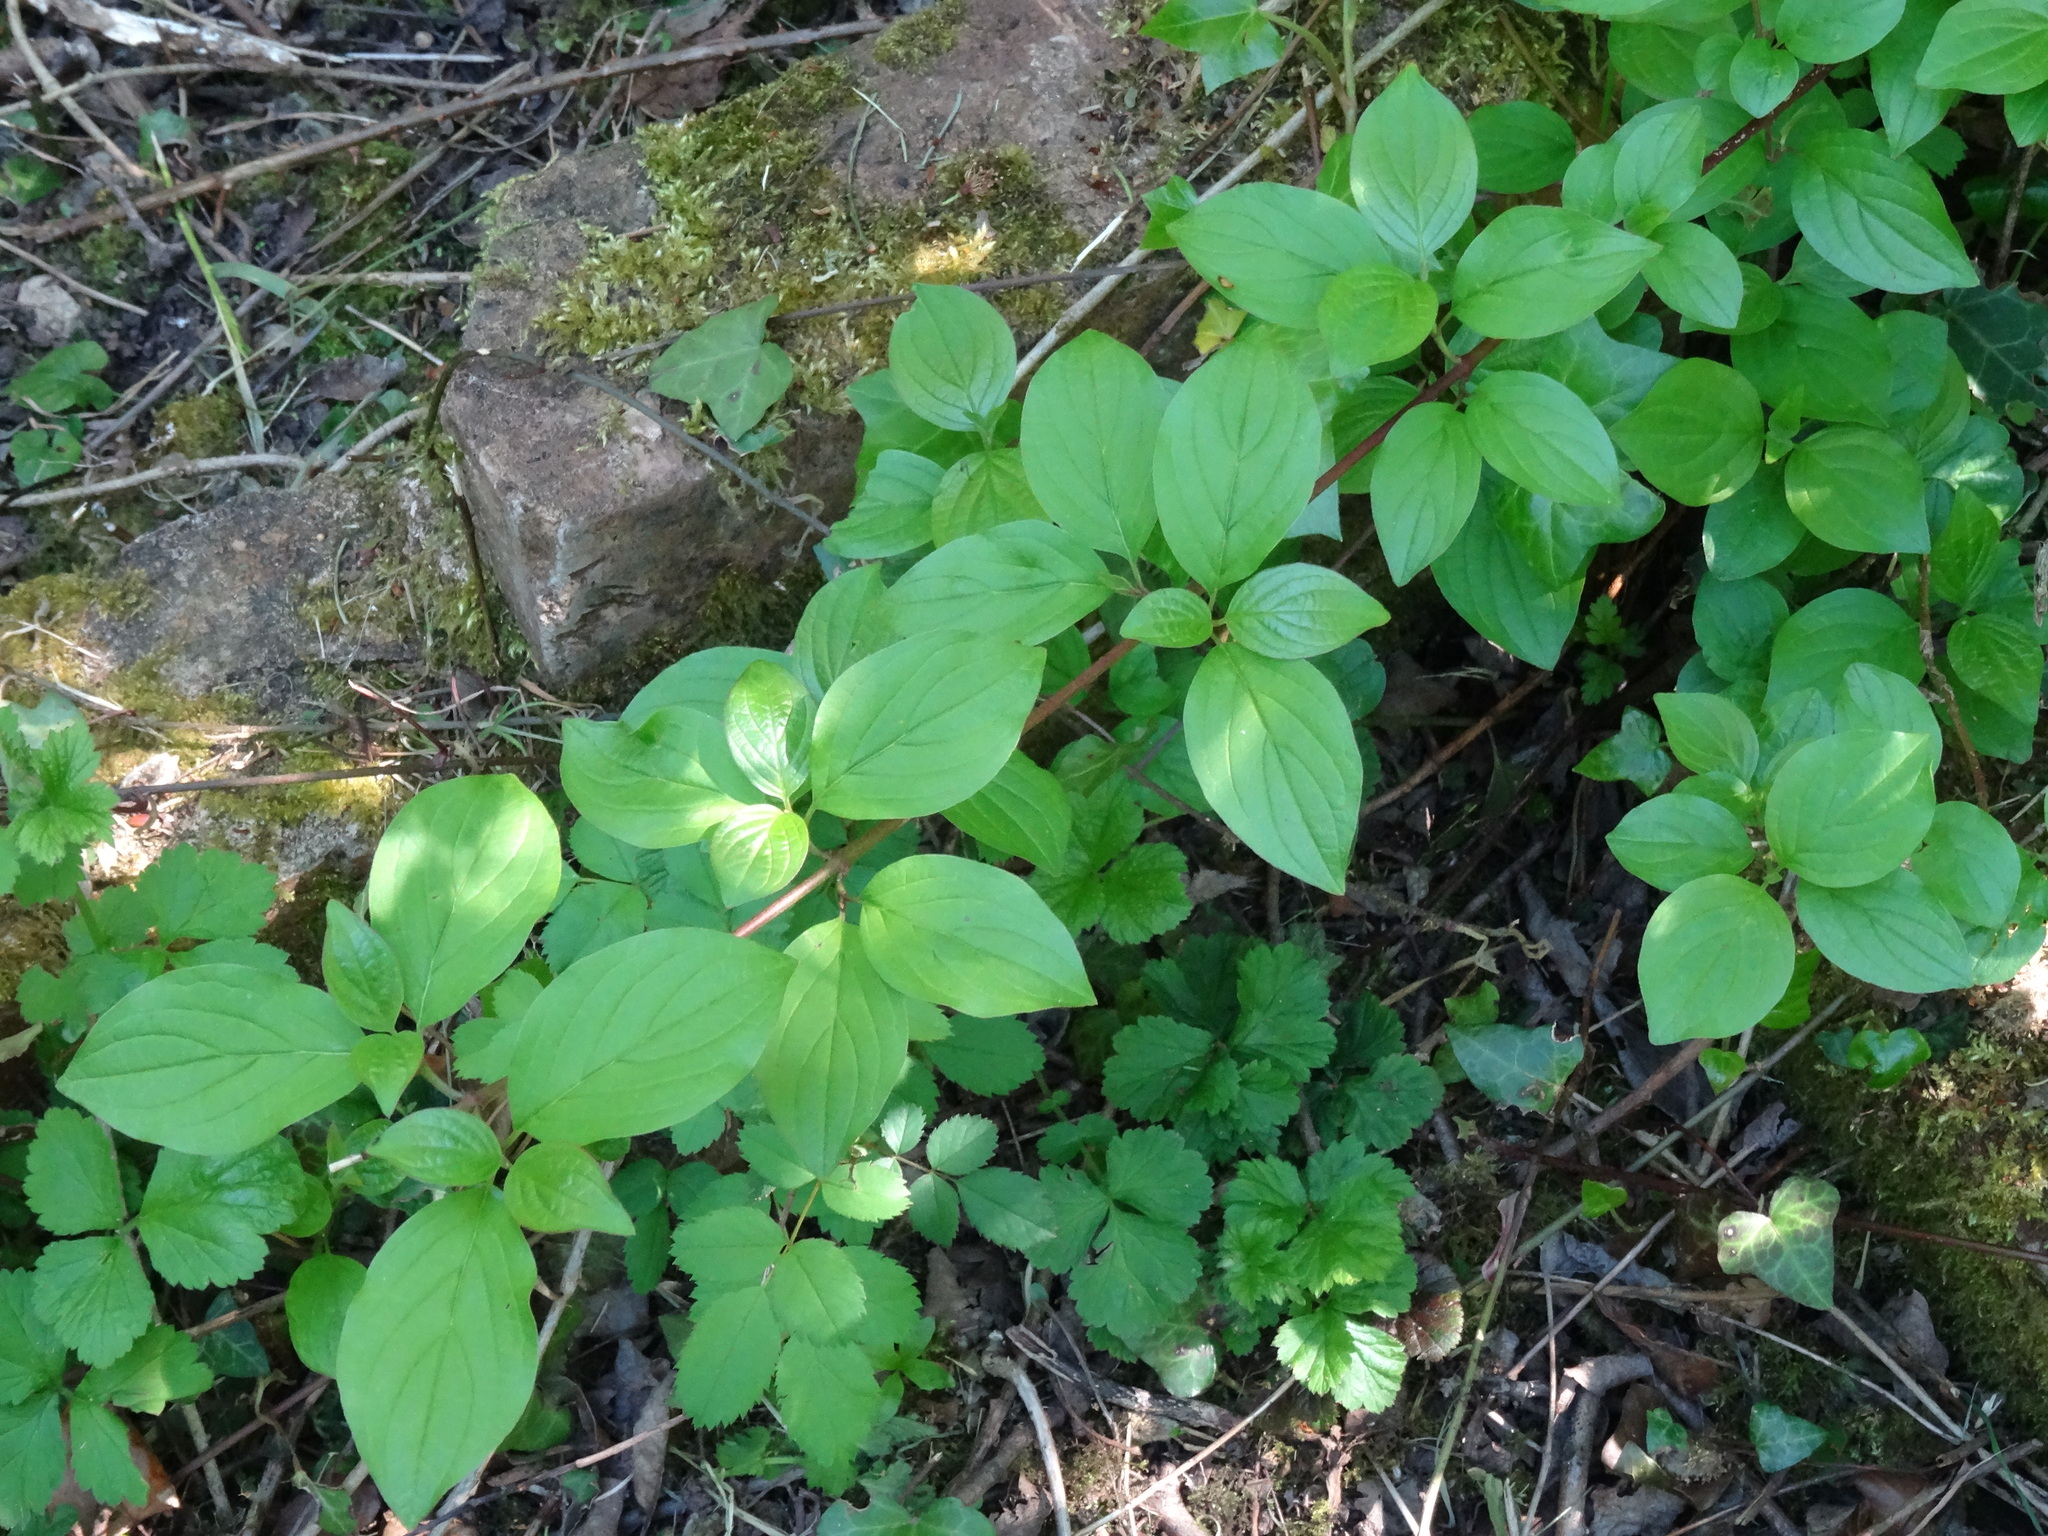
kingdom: Plantae
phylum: Tracheophyta
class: Magnoliopsida
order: Cornales
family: Cornaceae
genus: Cornus
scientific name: Cornus sanguinea
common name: Dogwood
